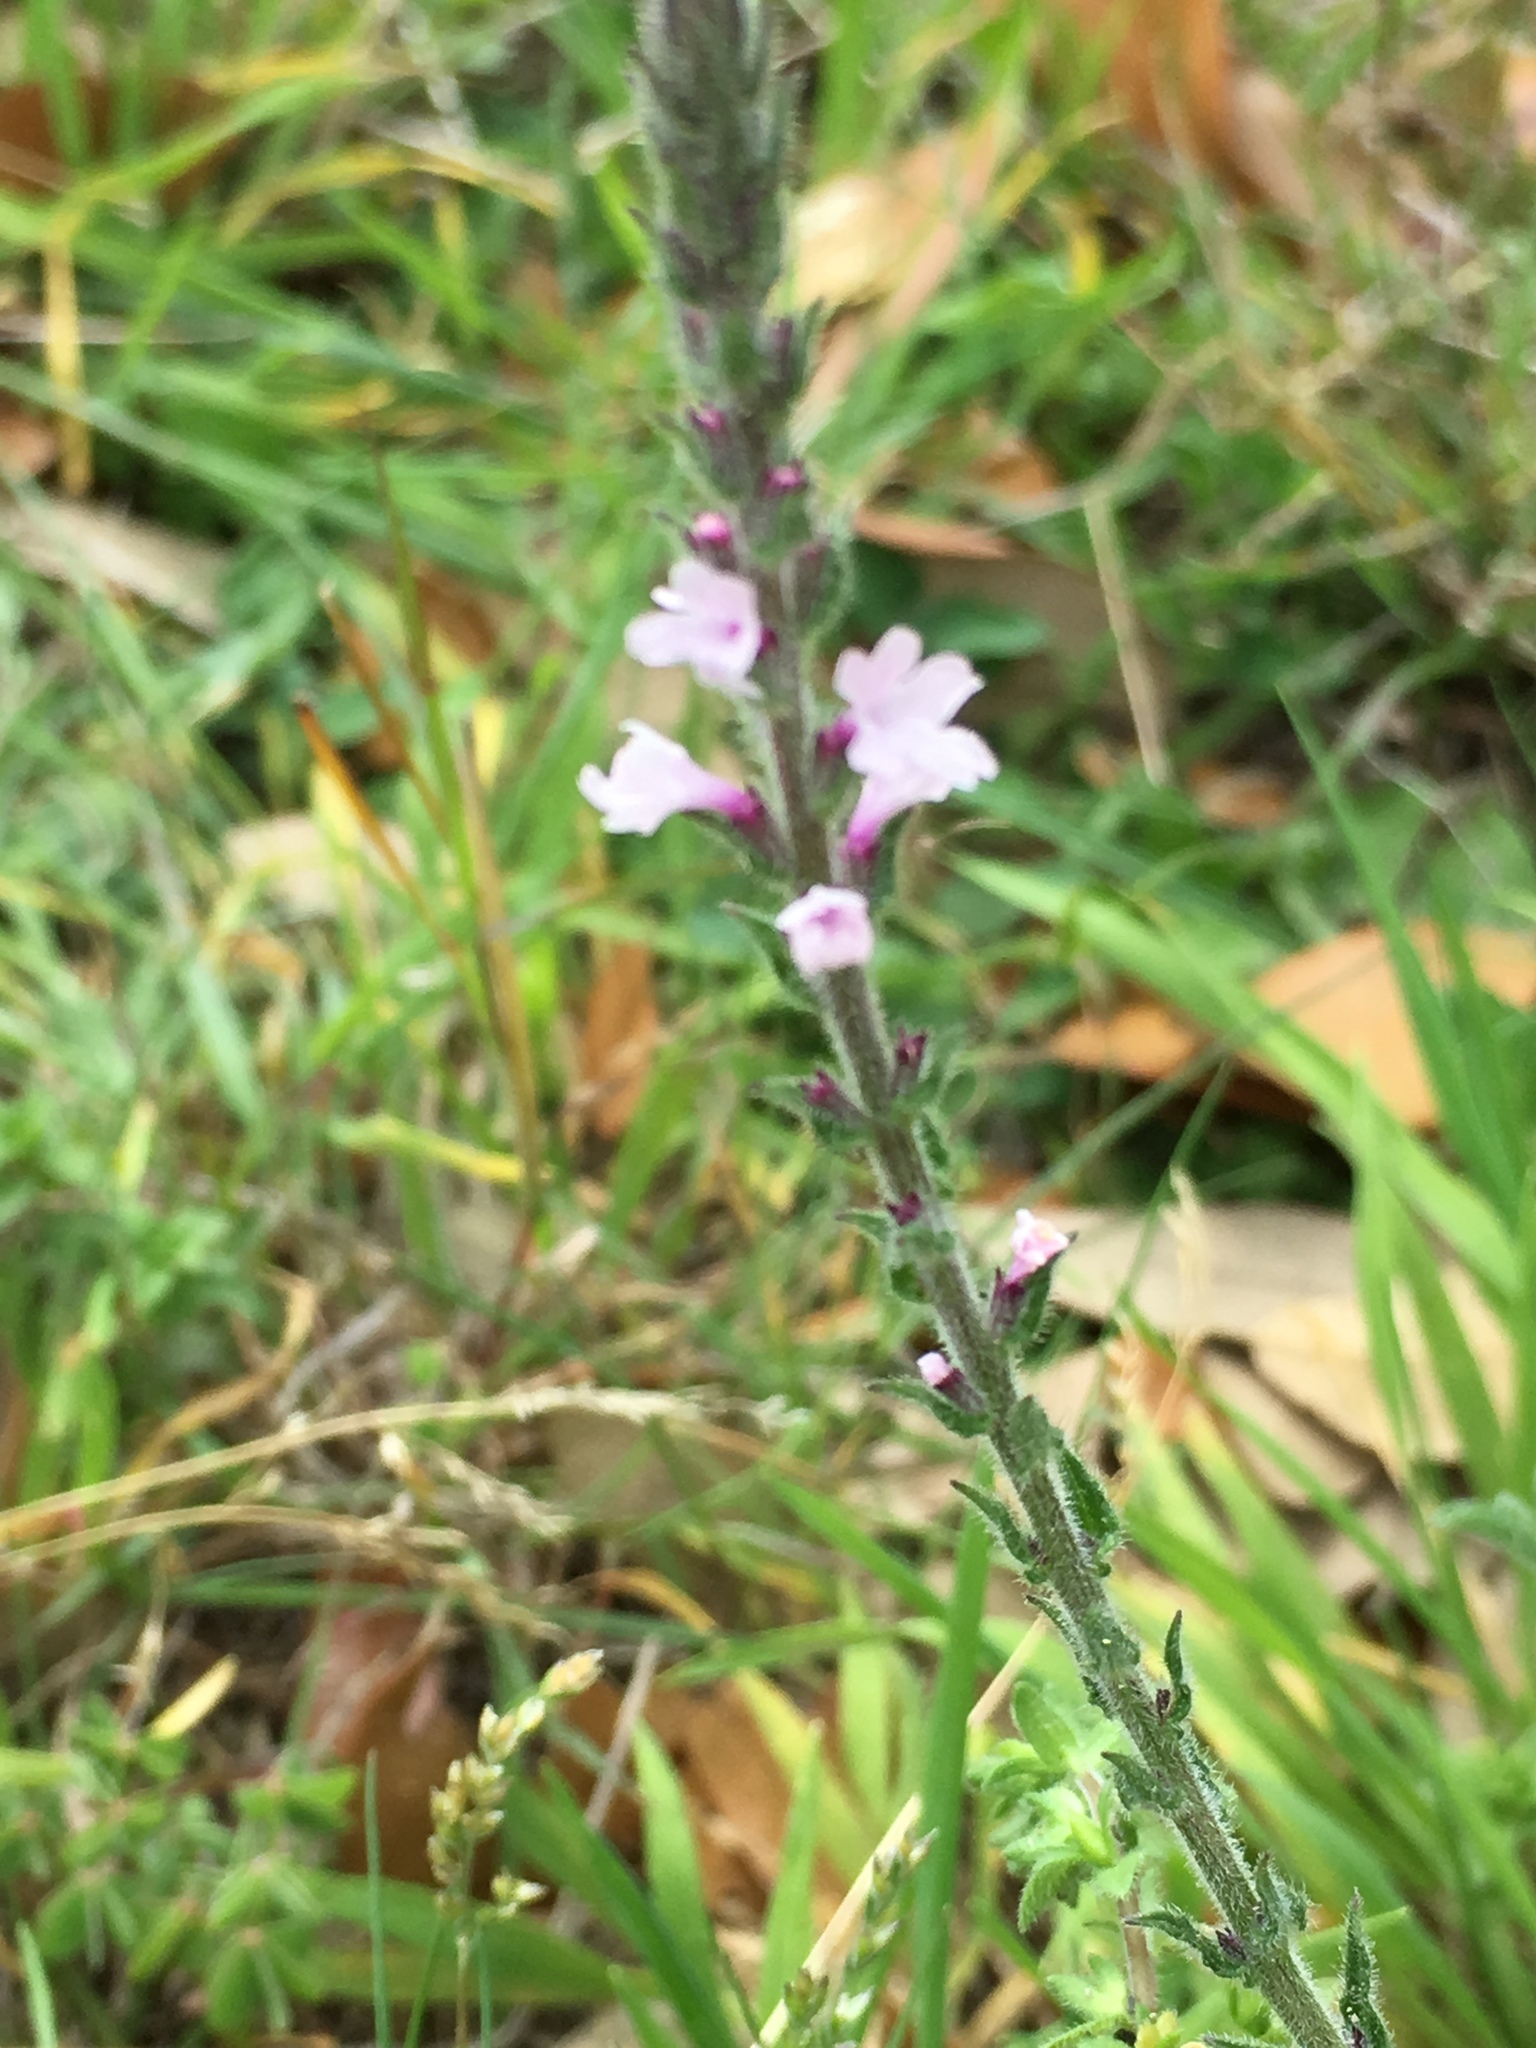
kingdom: Plantae
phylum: Tracheophyta
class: Magnoliopsida
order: Lamiales
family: Verbenaceae
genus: Verbena
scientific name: Verbena halei
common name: Texas vervain
